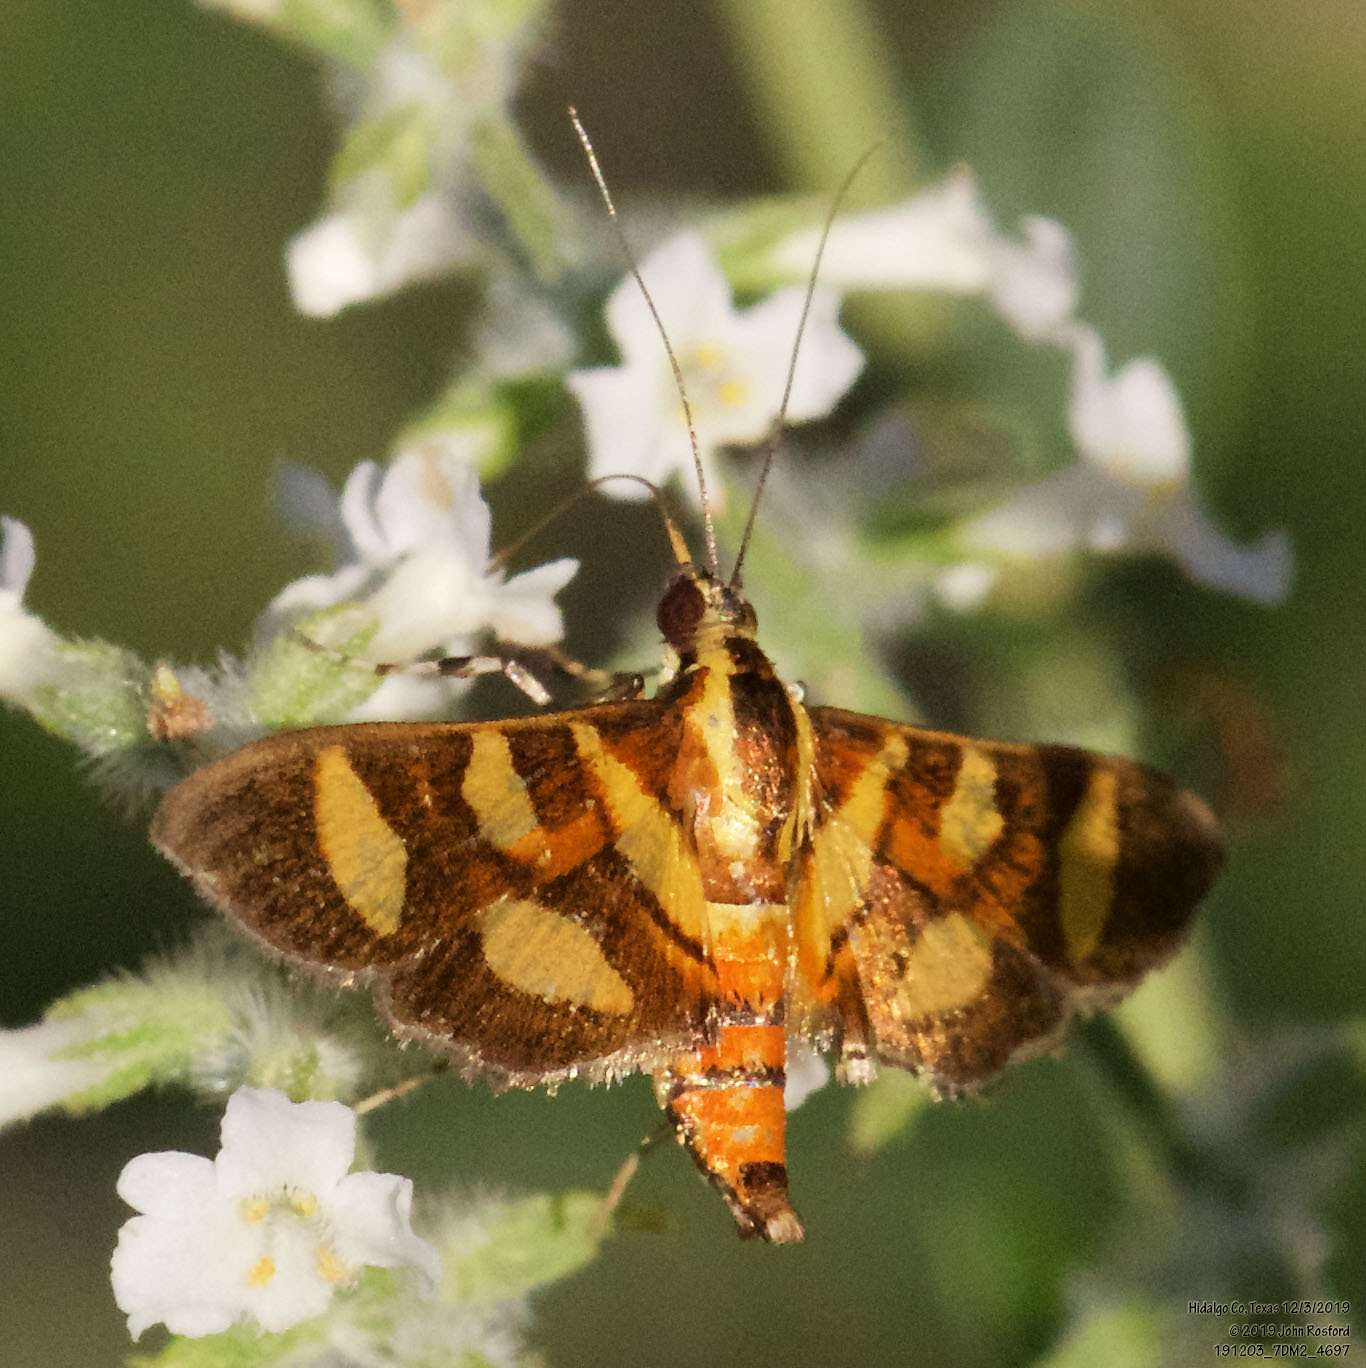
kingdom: Animalia
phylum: Arthropoda
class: Insecta
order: Lepidoptera
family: Crambidae
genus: Syngamia
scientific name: Syngamia florella
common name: Orange-spotted flower moth
